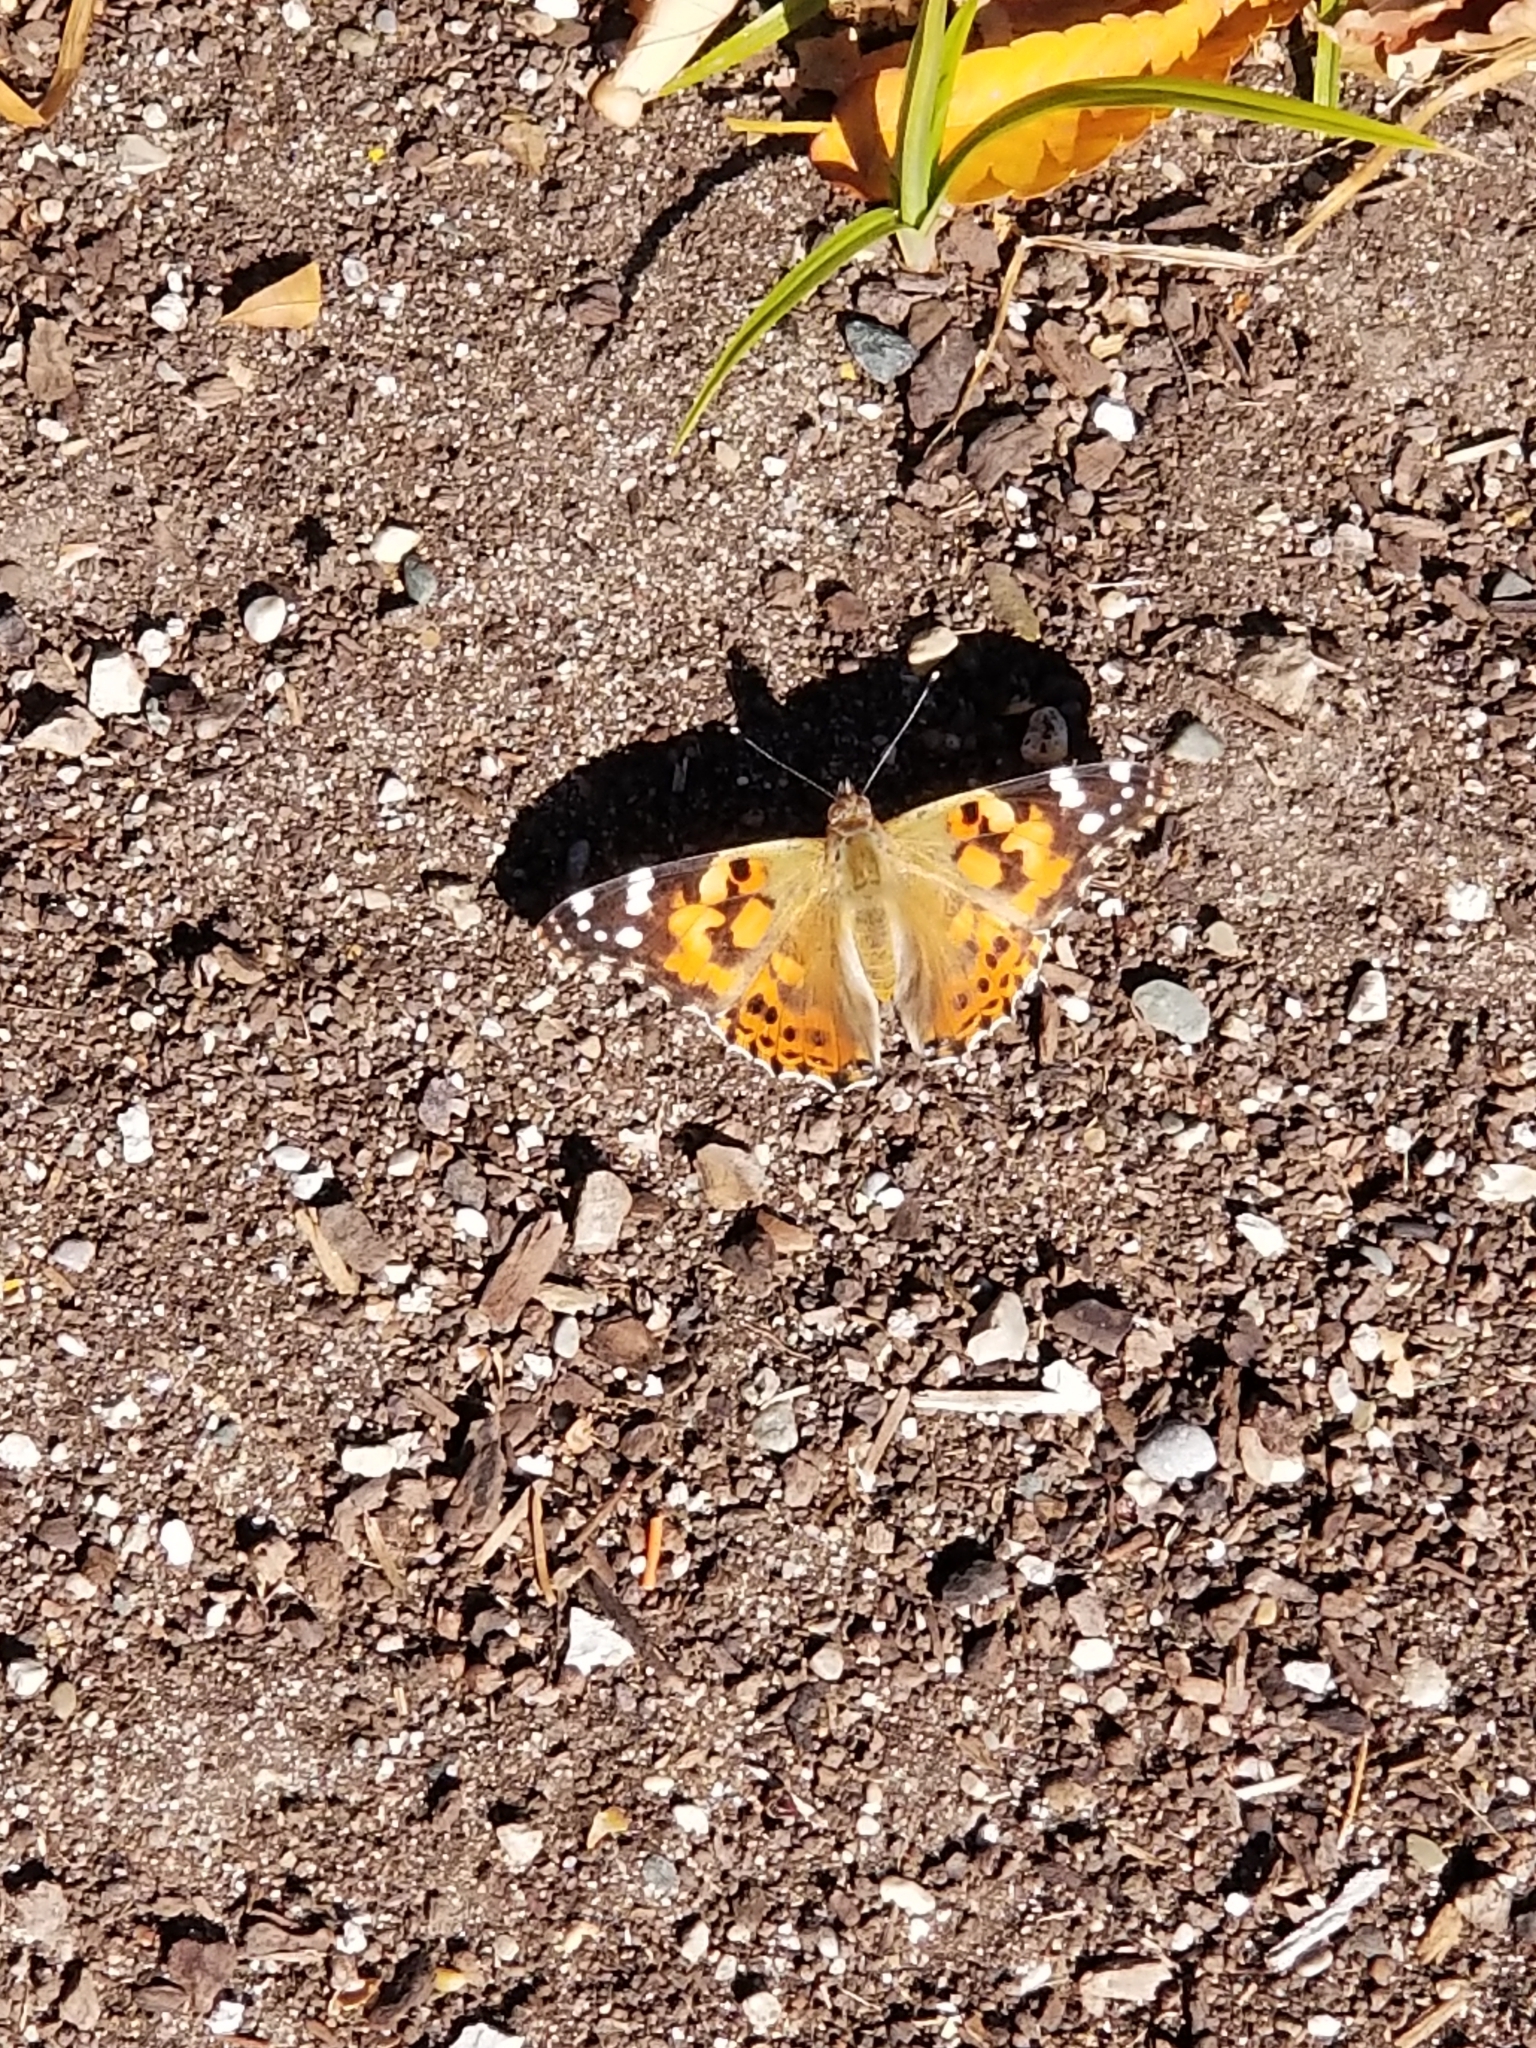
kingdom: Animalia
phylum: Arthropoda
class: Insecta
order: Lepidoptera
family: Nymphalidae
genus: Vanessa
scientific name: Vanessa cardui
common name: Painted lady
